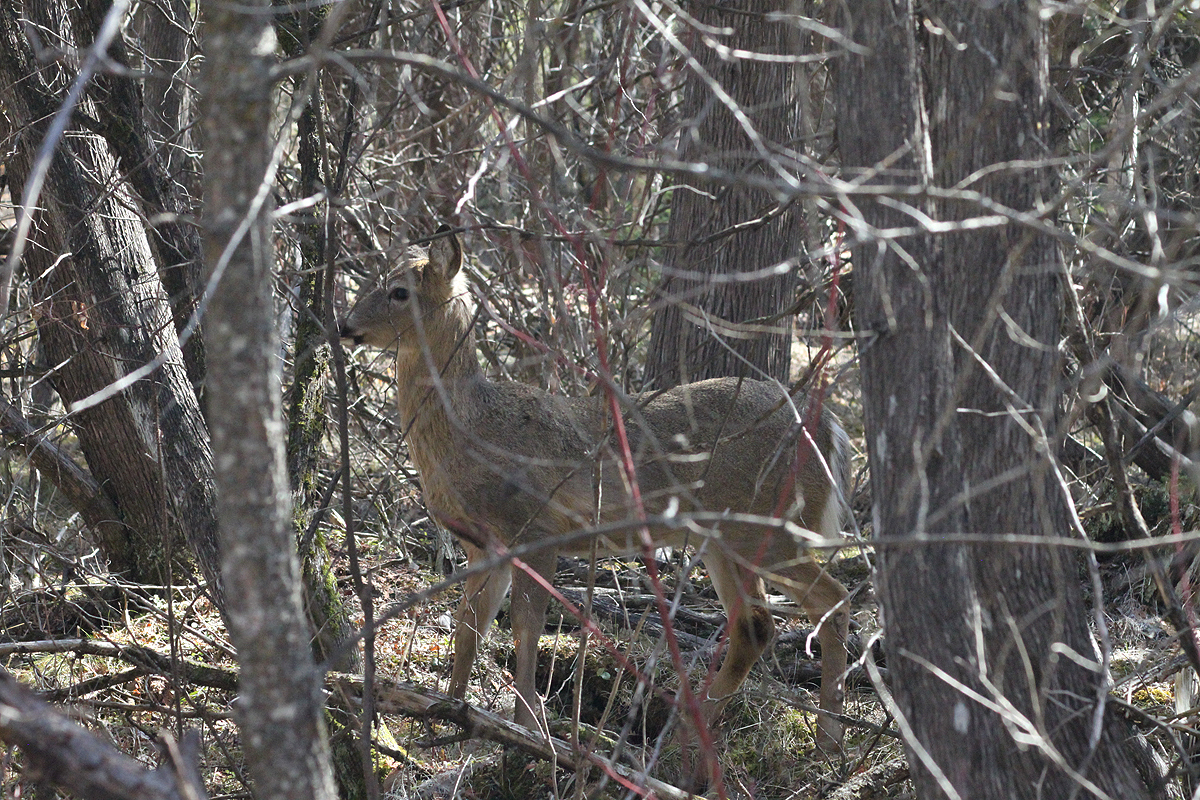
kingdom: Animalia
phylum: Chordata
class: Mammalia
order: Artiodactyla
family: Cervidae
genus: Odocoileus
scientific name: Odocoileus virginianus
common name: White-tailed deer
